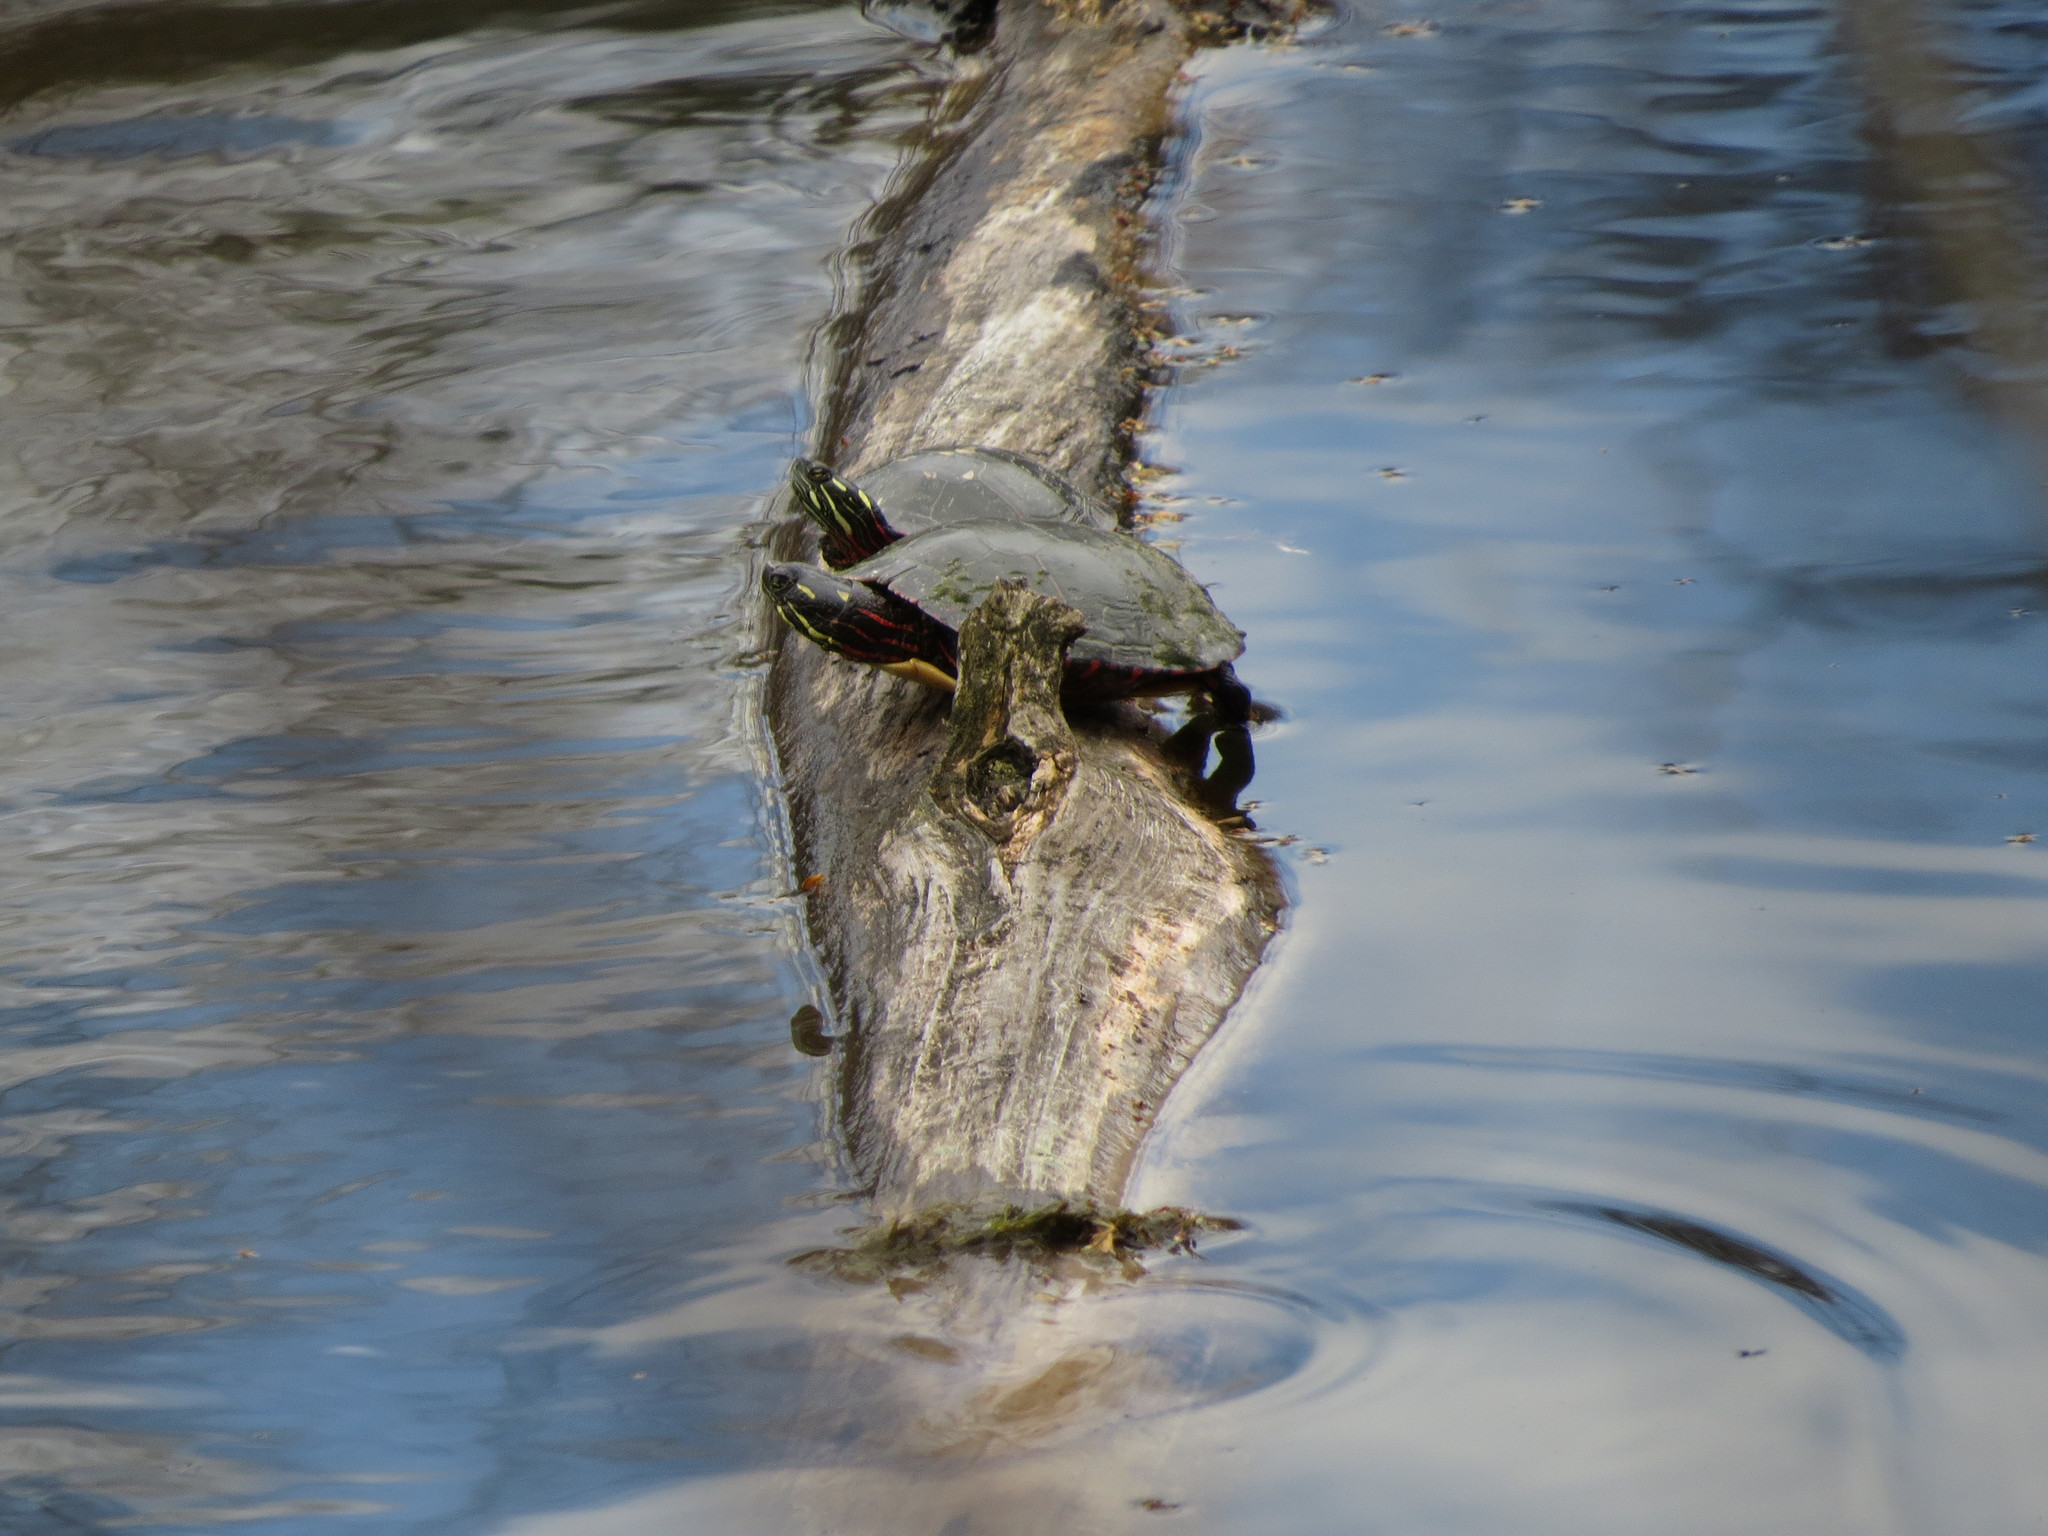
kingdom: Animalia
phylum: Chordata
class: Testudines
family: Emydidae
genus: Chrysemys
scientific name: Chrysemys picta
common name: Painted turtle
